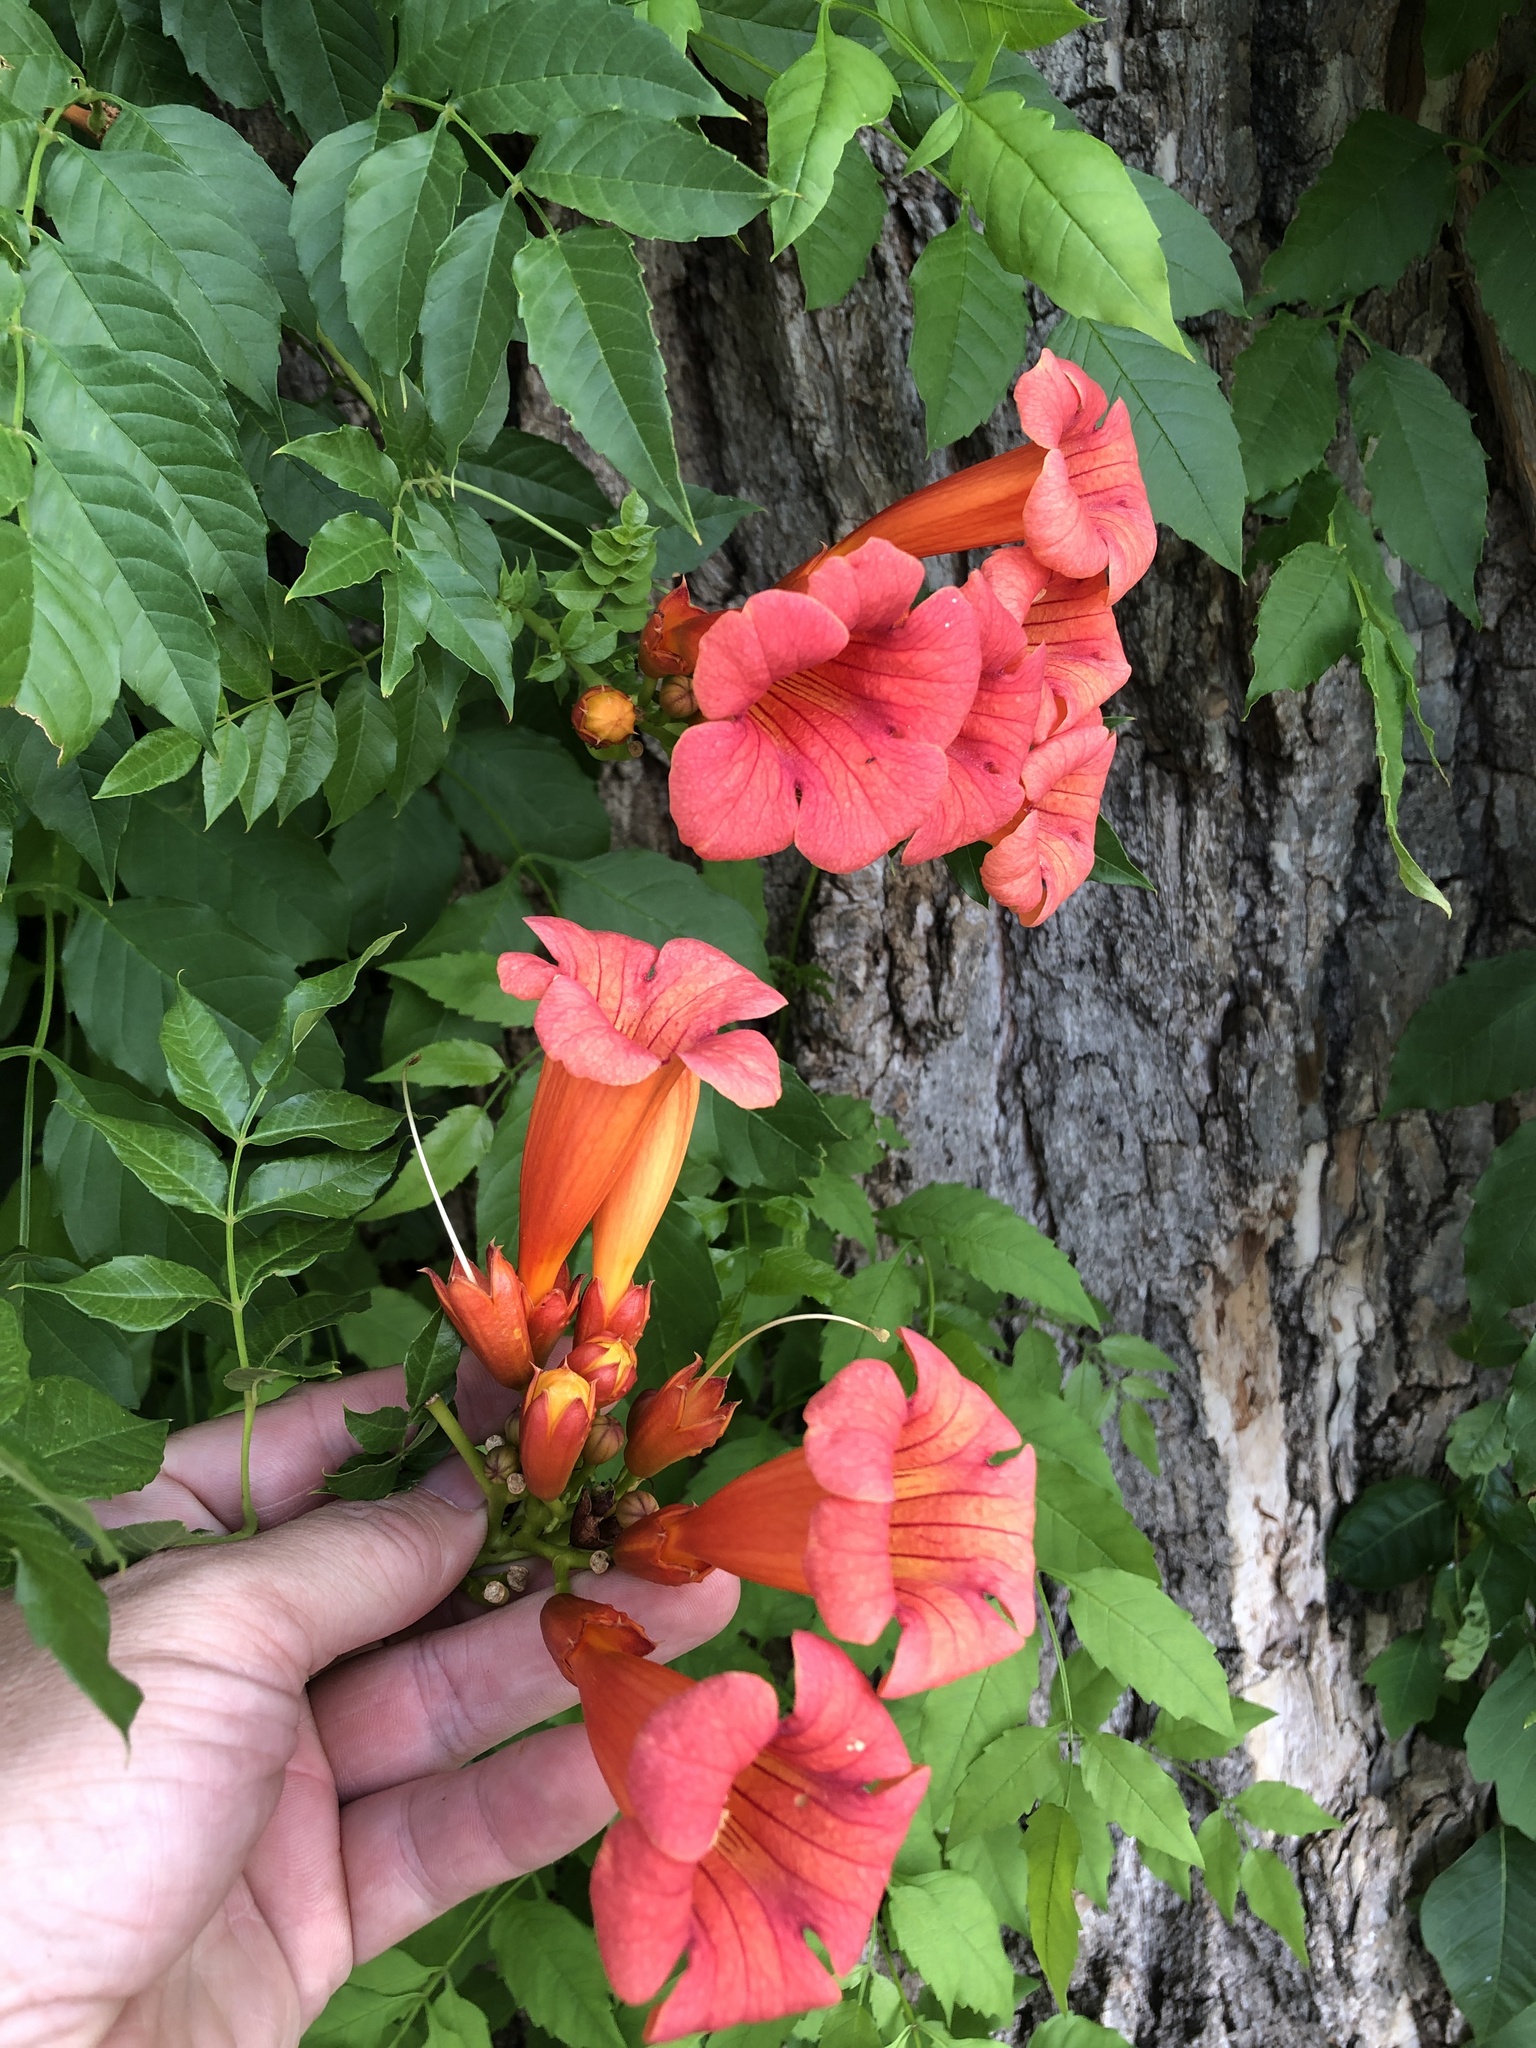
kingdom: Plantae
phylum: Tracheophyta
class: Magnoliopsida
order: Lamiales
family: Bignoniaceae
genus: Campsis
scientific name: Campsis radicans
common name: Trumpet-creeper
